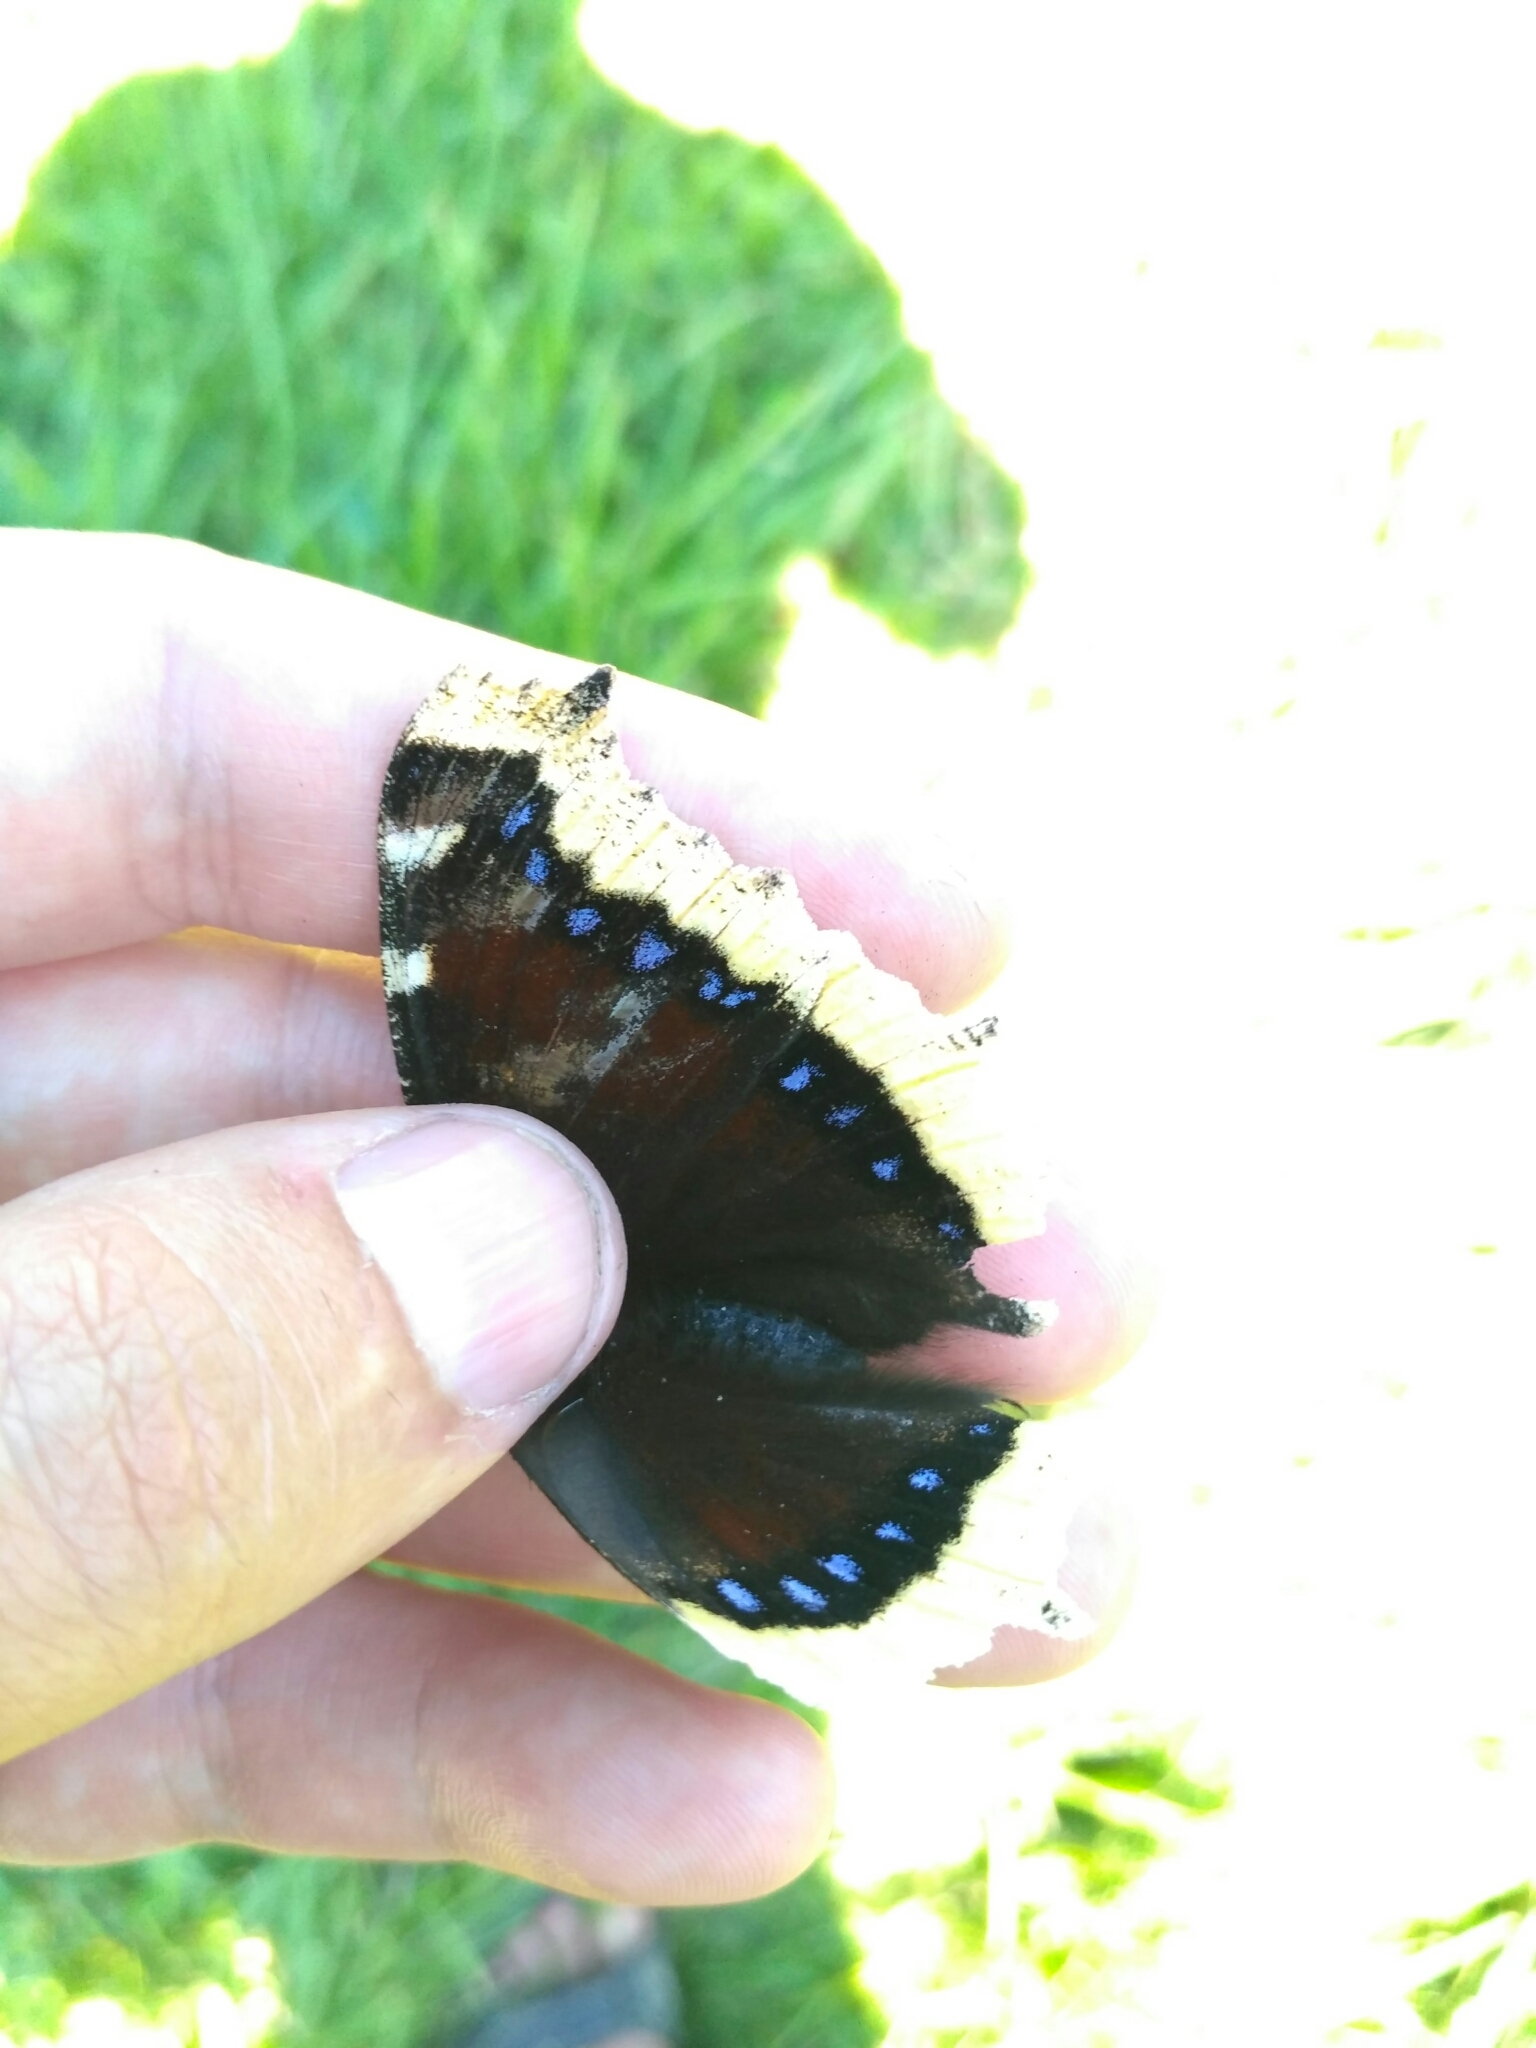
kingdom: Animalia
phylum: Arthropoda
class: Insecta
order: Lepidoptera
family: Nymphalidae
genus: Nymphalis
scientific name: Nymphalis antiopa
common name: Camberwell beauty
